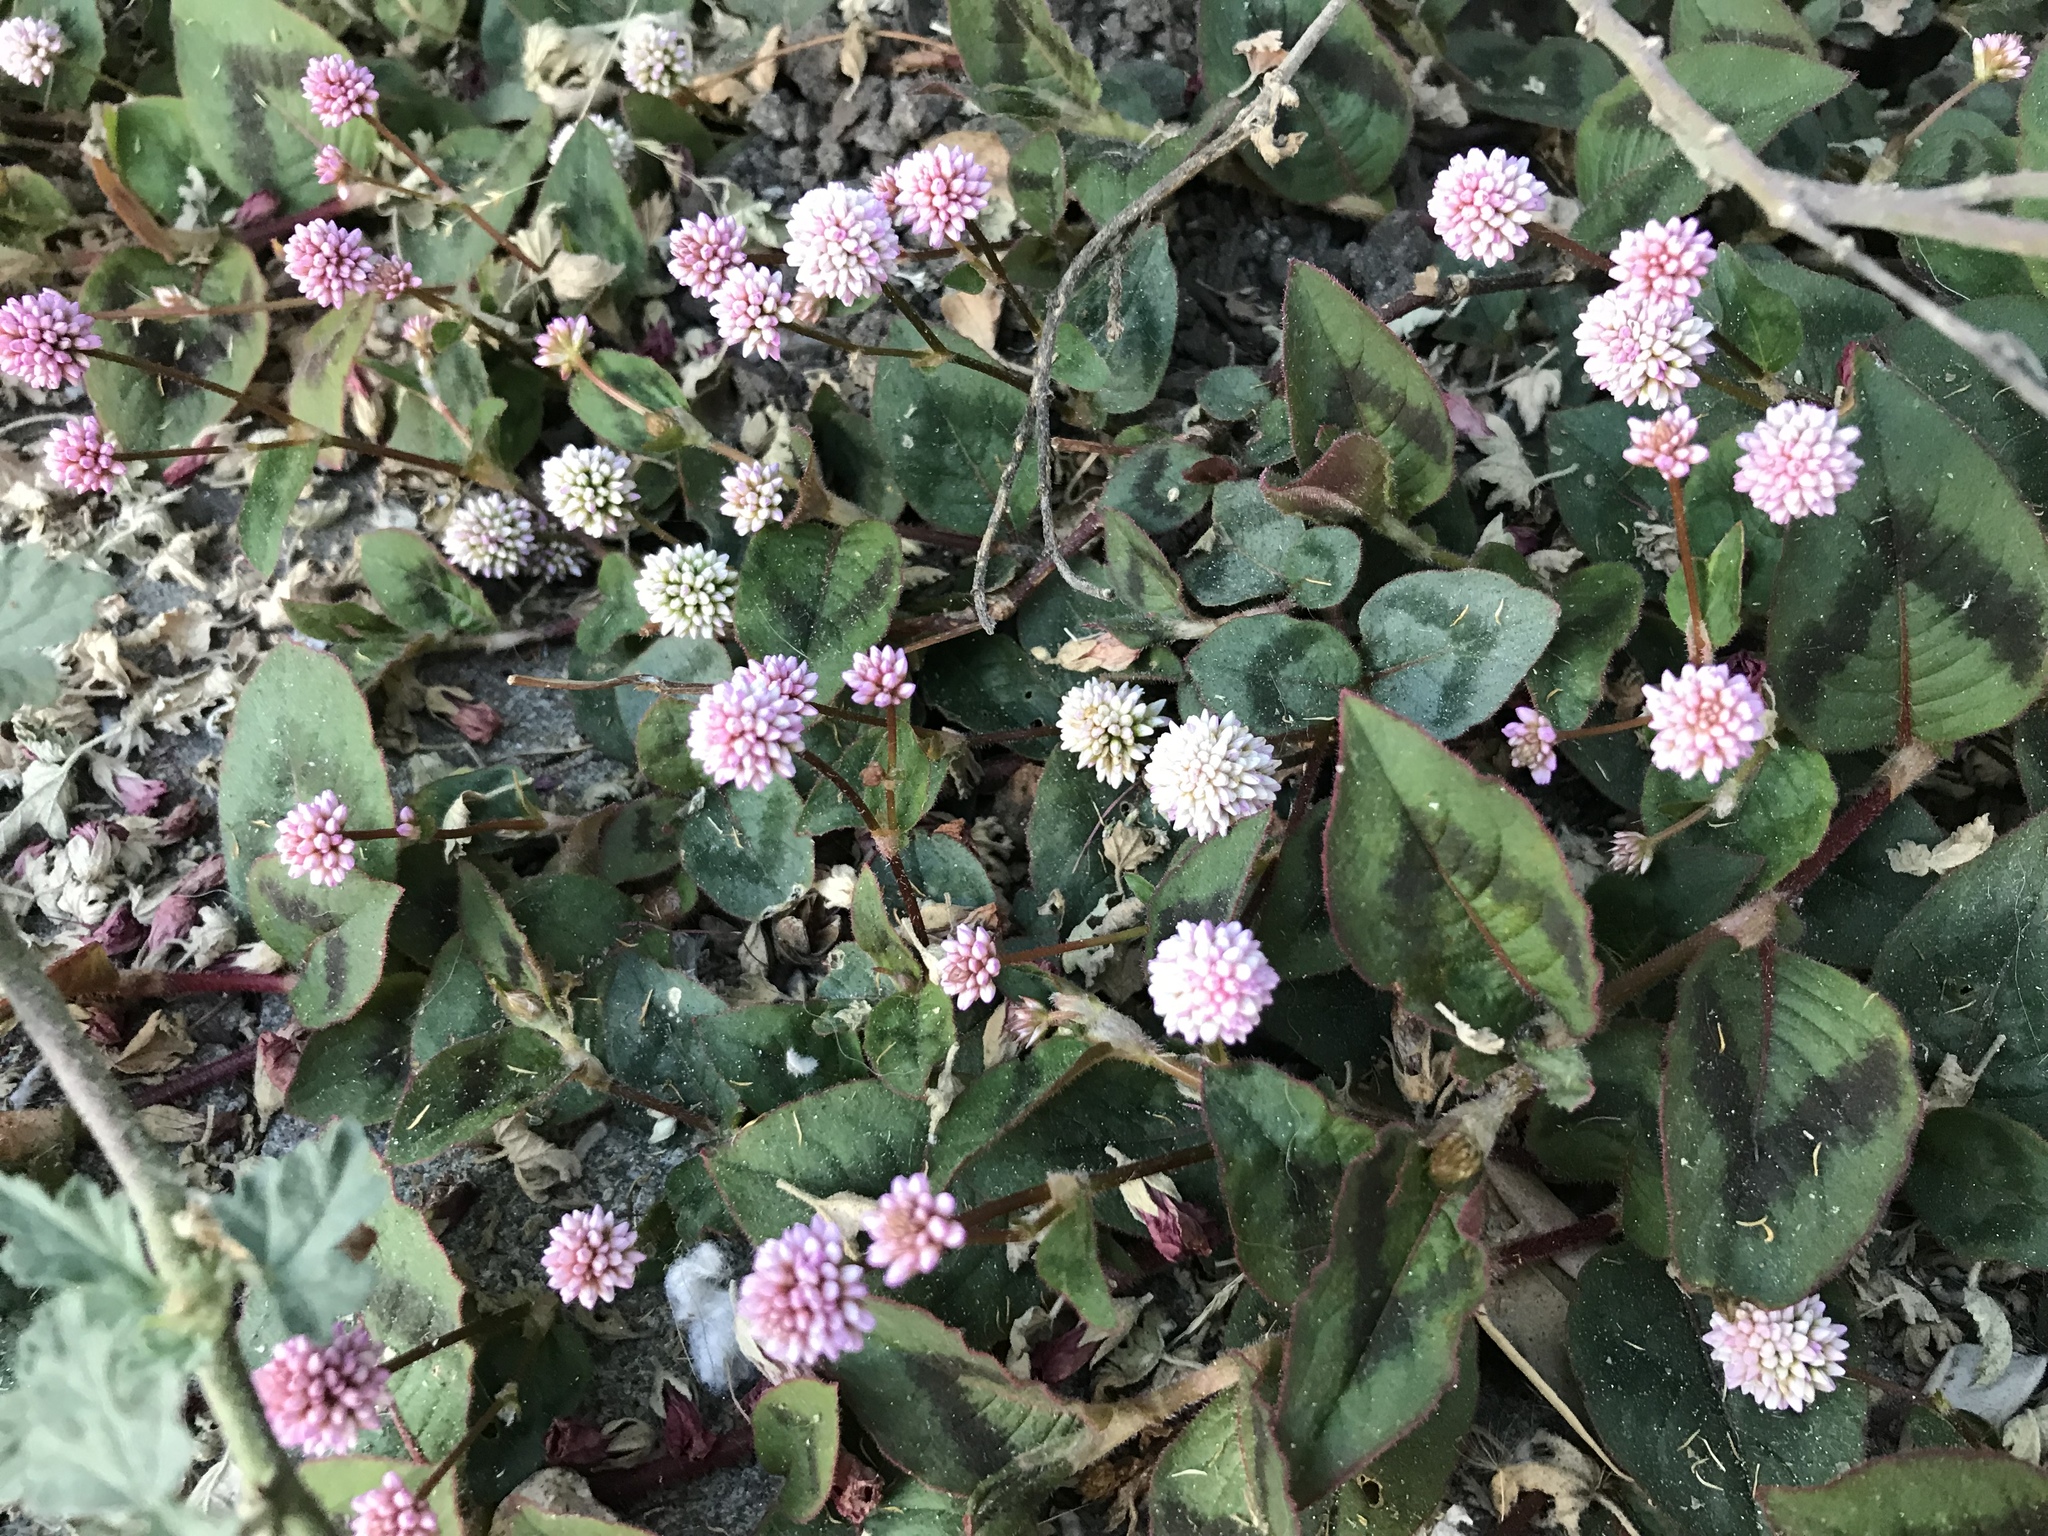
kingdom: Plantae
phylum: Tracheophyta
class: Magnoliopsida
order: Caryophyllales
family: Polygonaceae
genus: Persicaria
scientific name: Persicaria capitata
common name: Pinkhead smartweed
